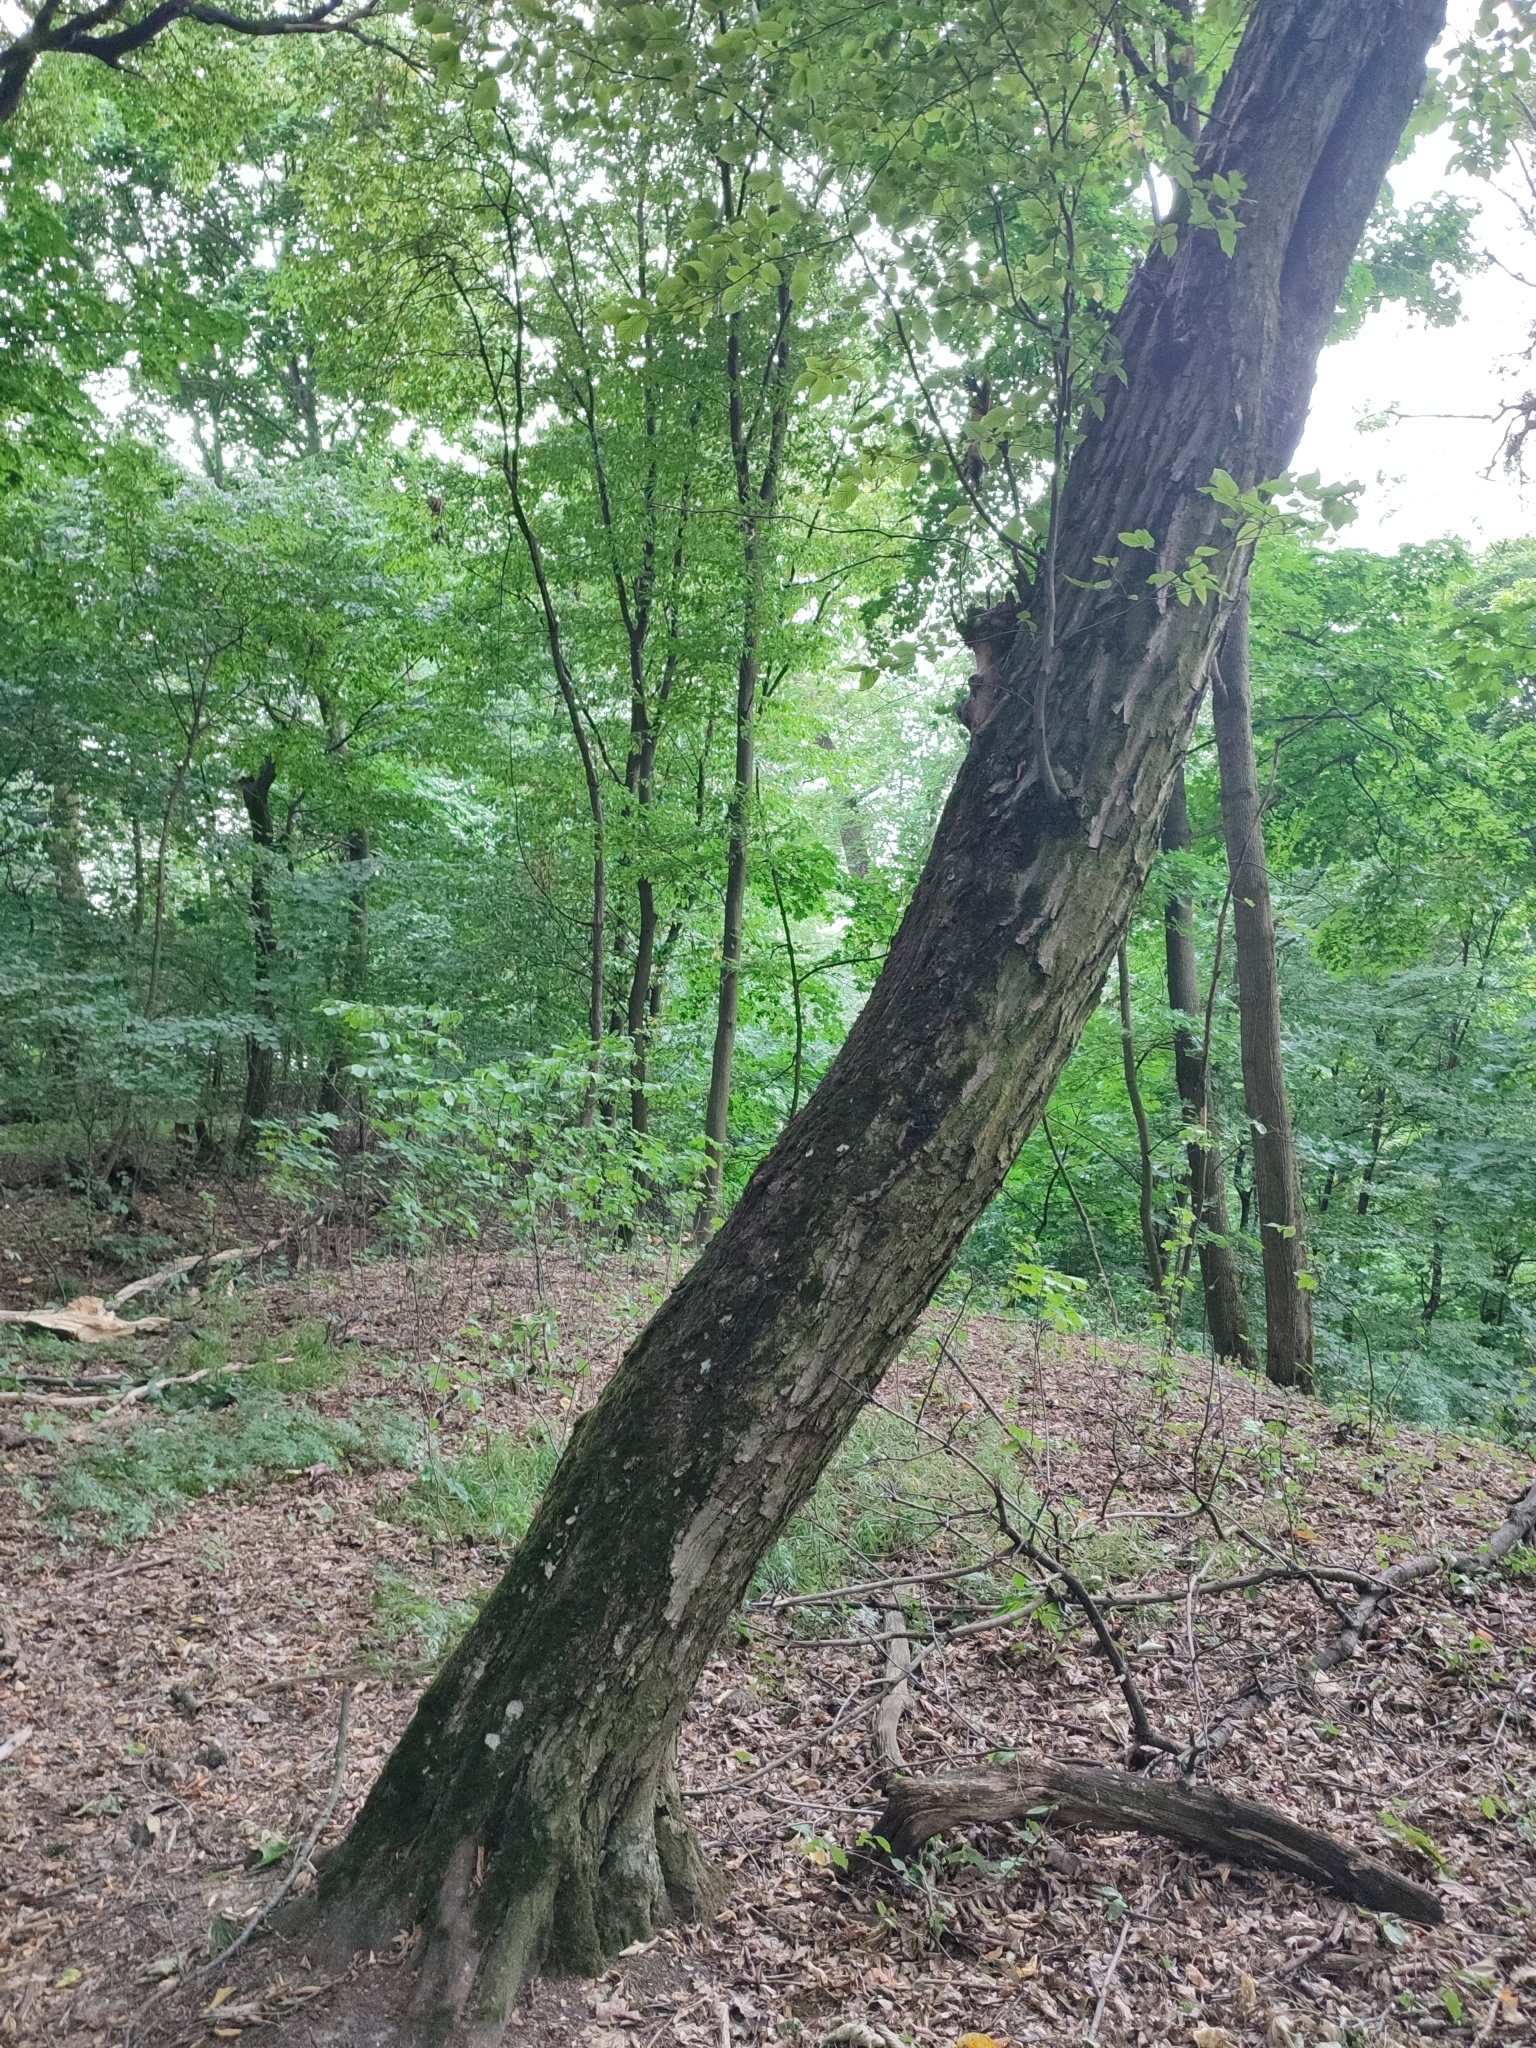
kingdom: Plantae
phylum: Tracheophyta
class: Magnoliopsida
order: Fagales
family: Betulaceae
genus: Carpinus
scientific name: Carpinus betulus
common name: Hornbeam
